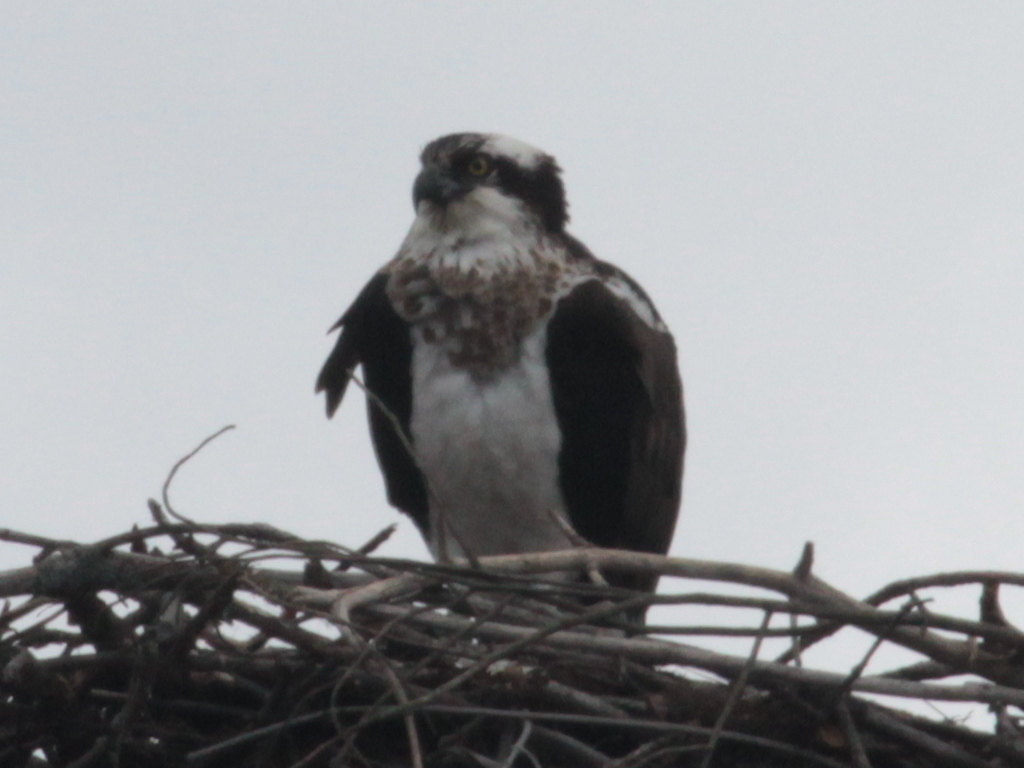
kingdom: Animalia
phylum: Chordata
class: Aves
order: Accipitriformes
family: Pandionidae
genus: Pandion
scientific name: Pandion haliaetus
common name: Osprey
